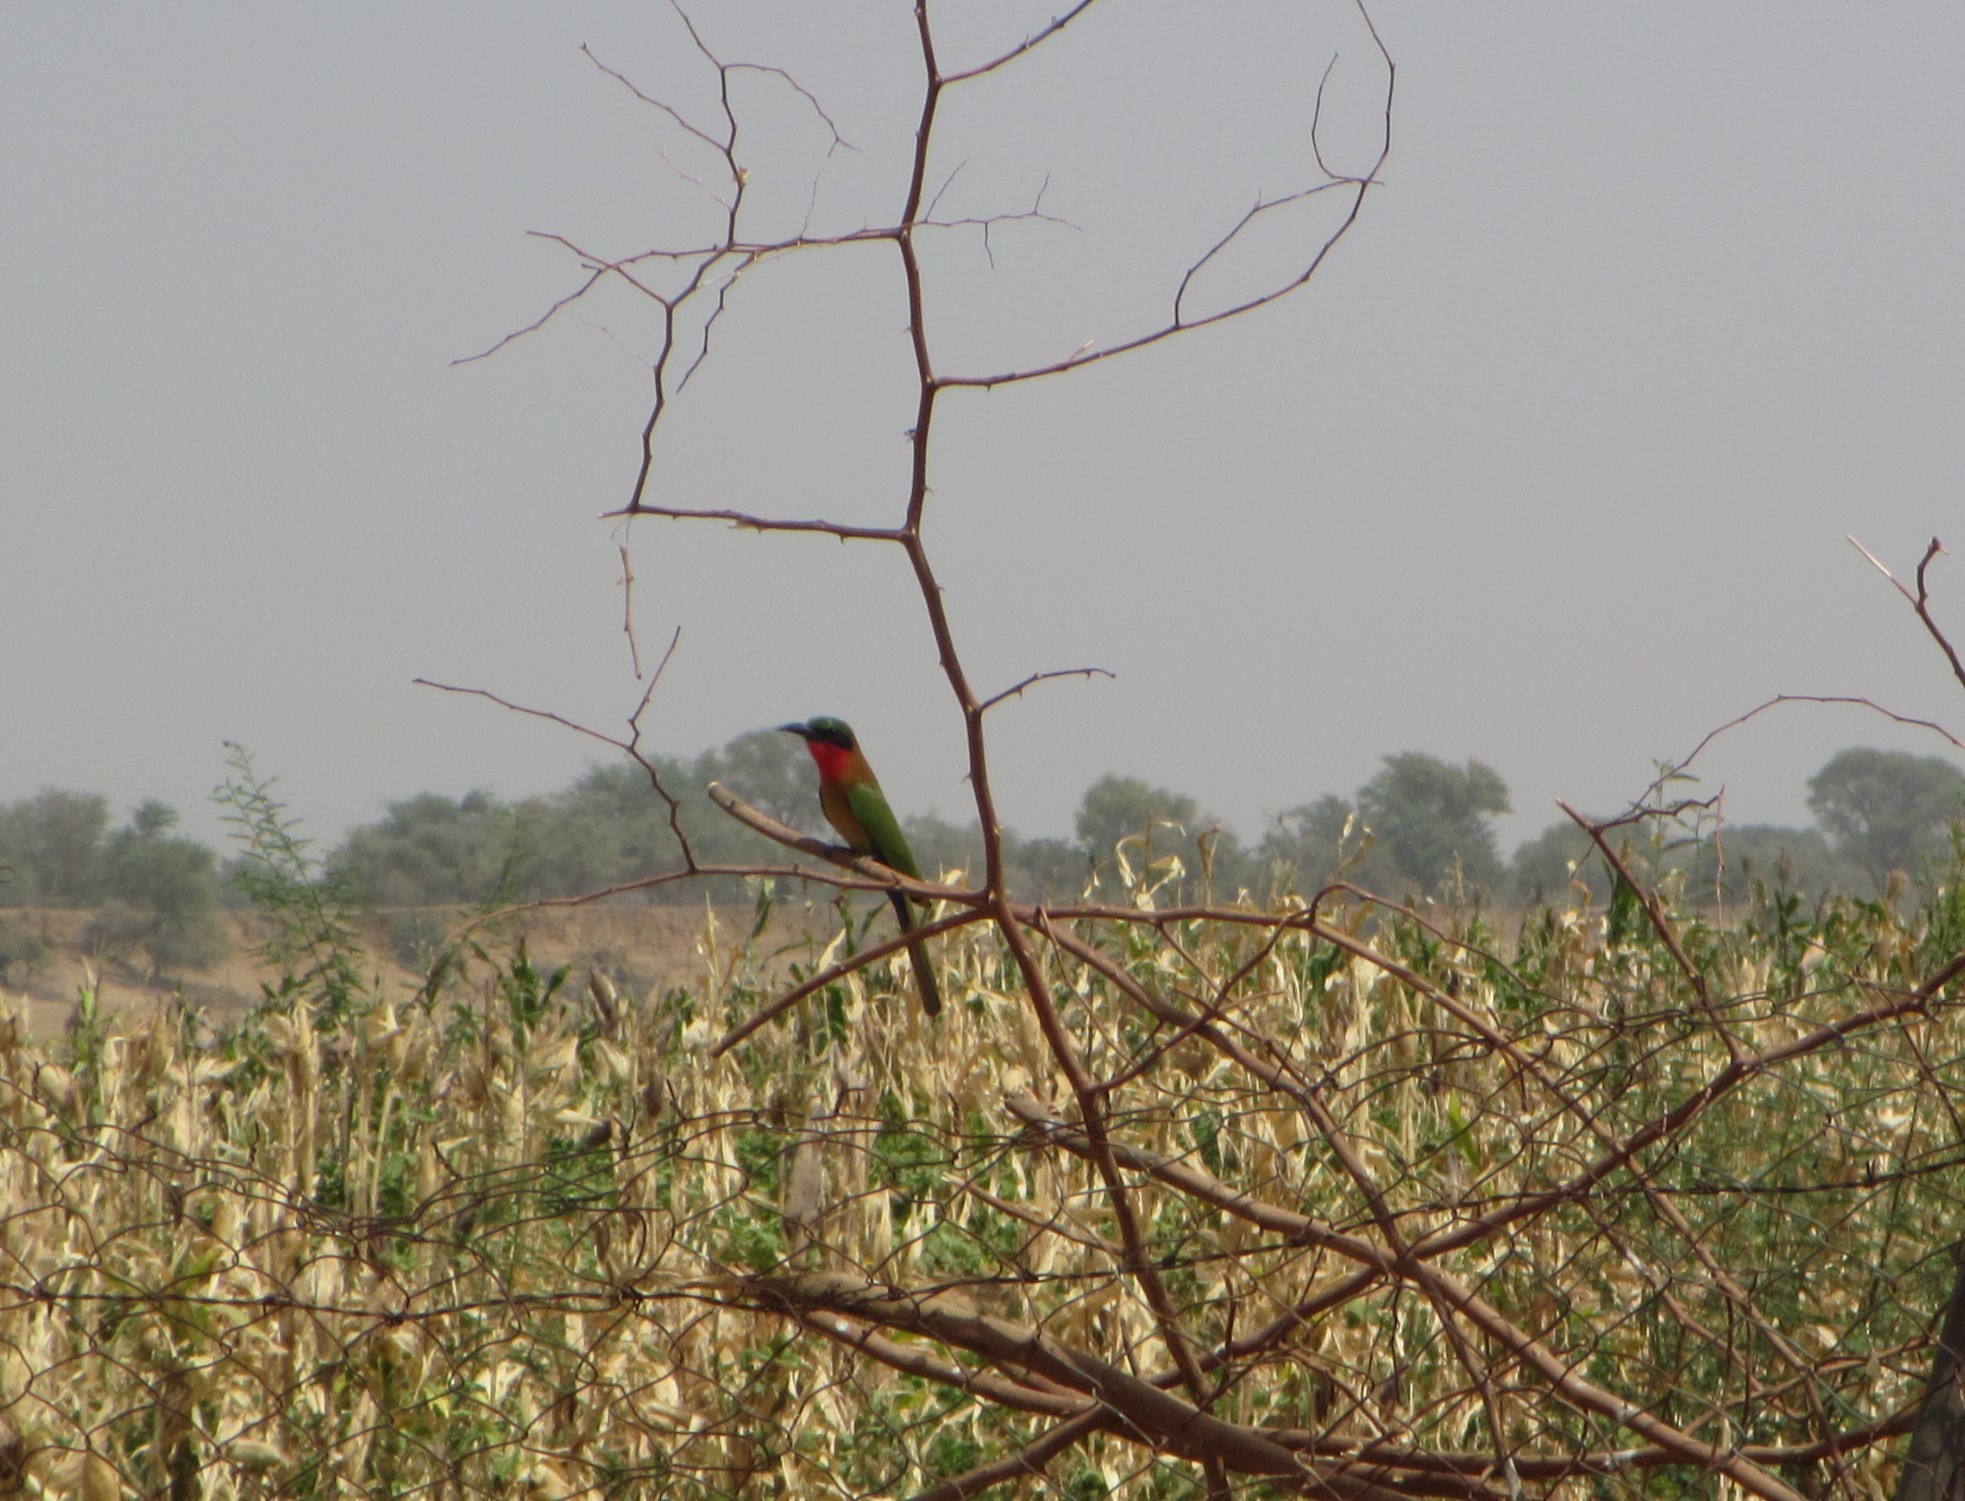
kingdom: Animalia
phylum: Chordata
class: Aves
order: Coraciiformes
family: Meropidae
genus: Merops
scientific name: Merops bulocki
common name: Red-throated bee-eater
